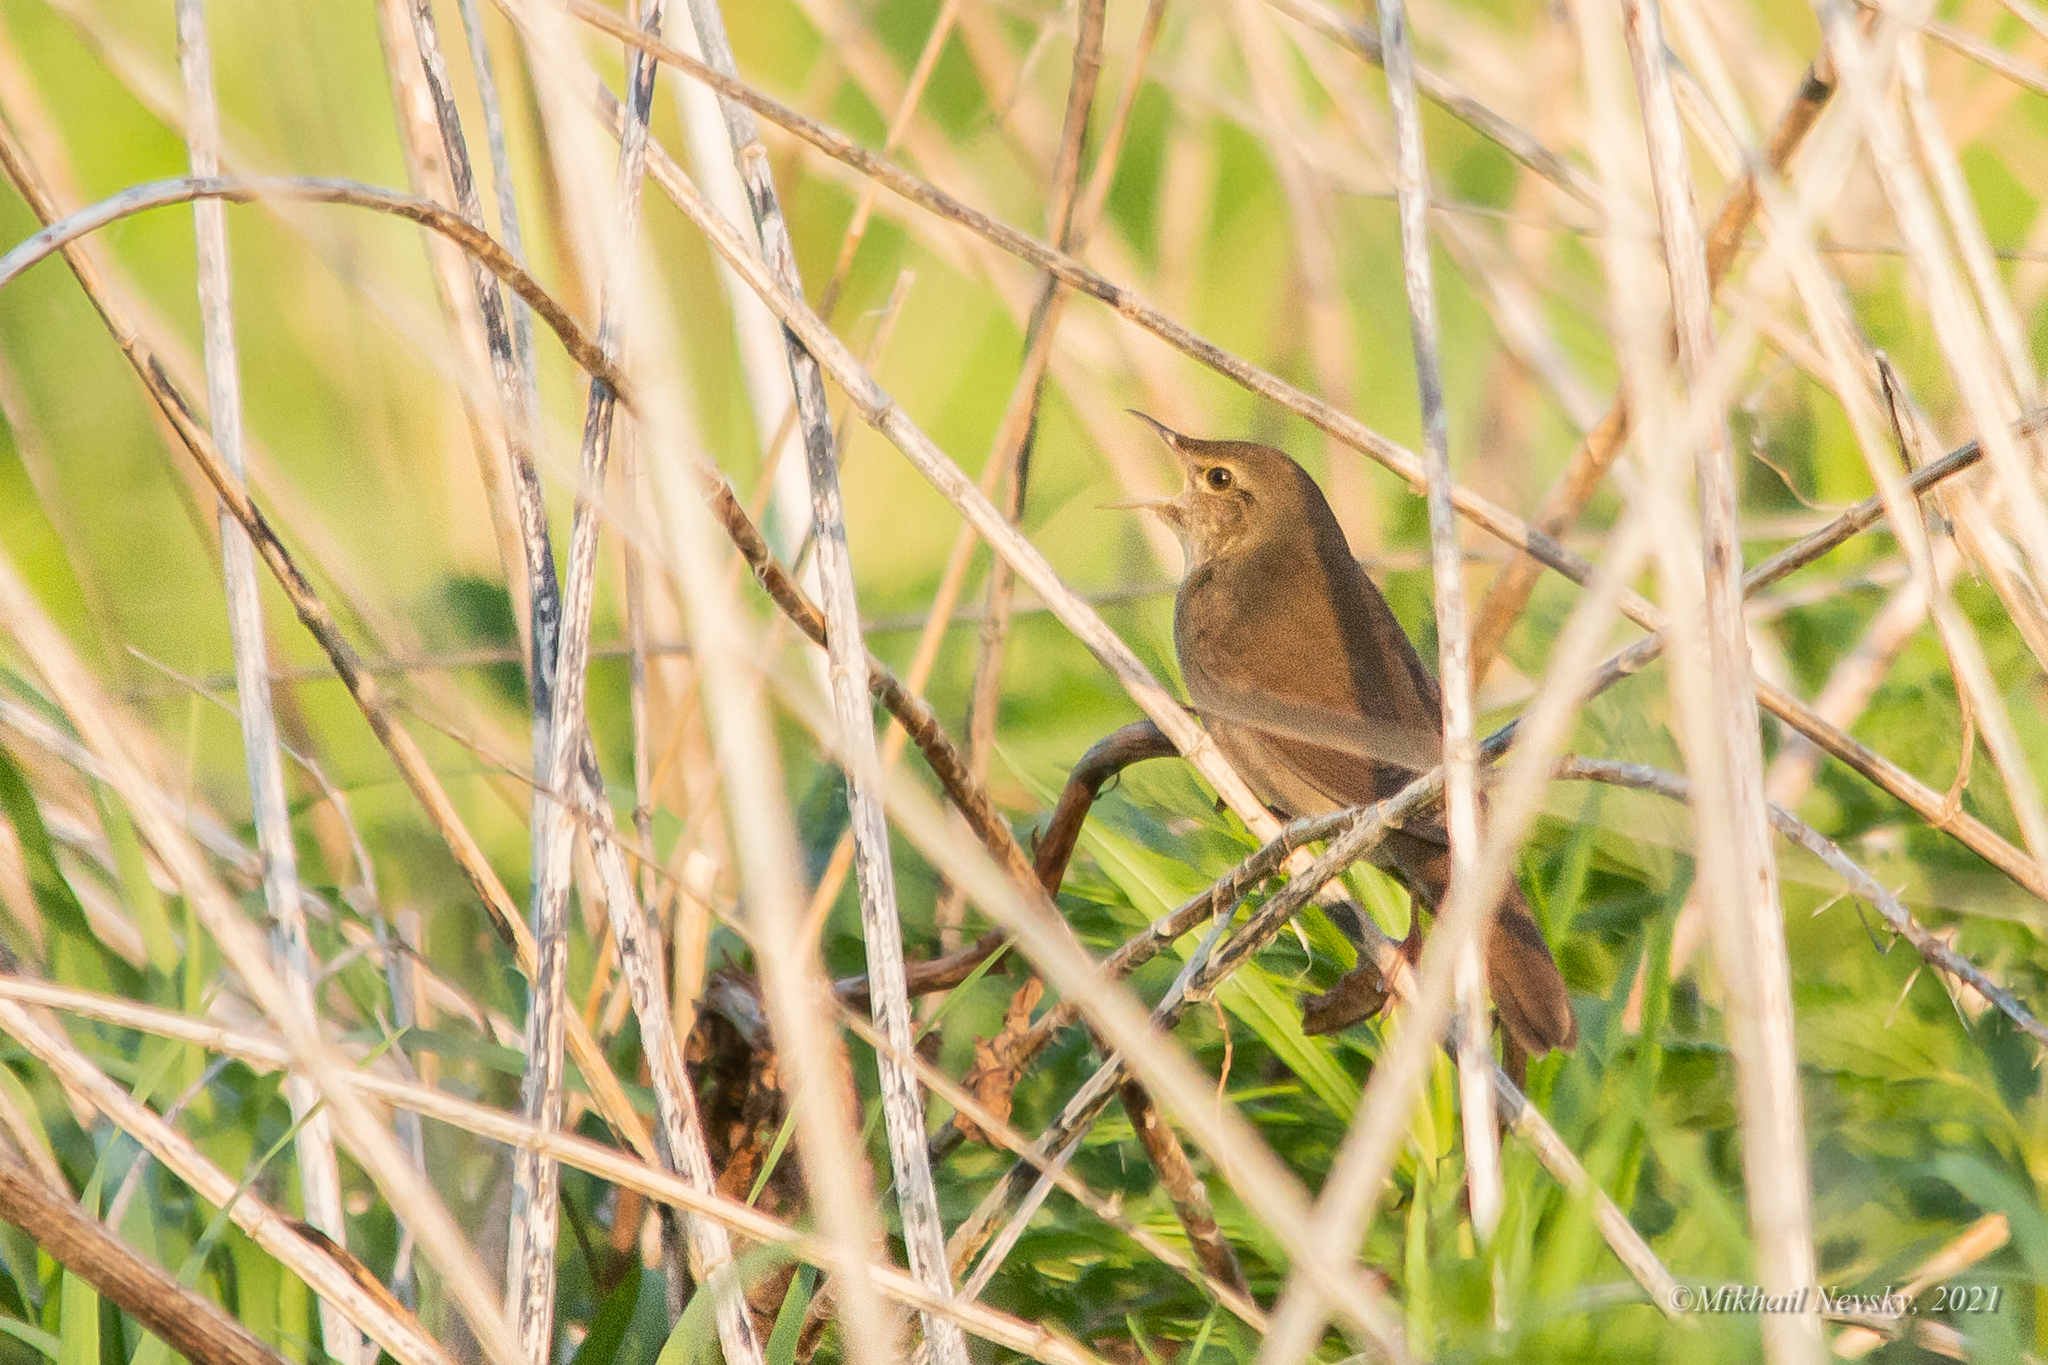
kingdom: Animalia
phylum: Chordata
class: Aves
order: Passeriformes
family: Locustellidae
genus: Locustella
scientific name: Locustella fluviatilis
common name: River warbler
